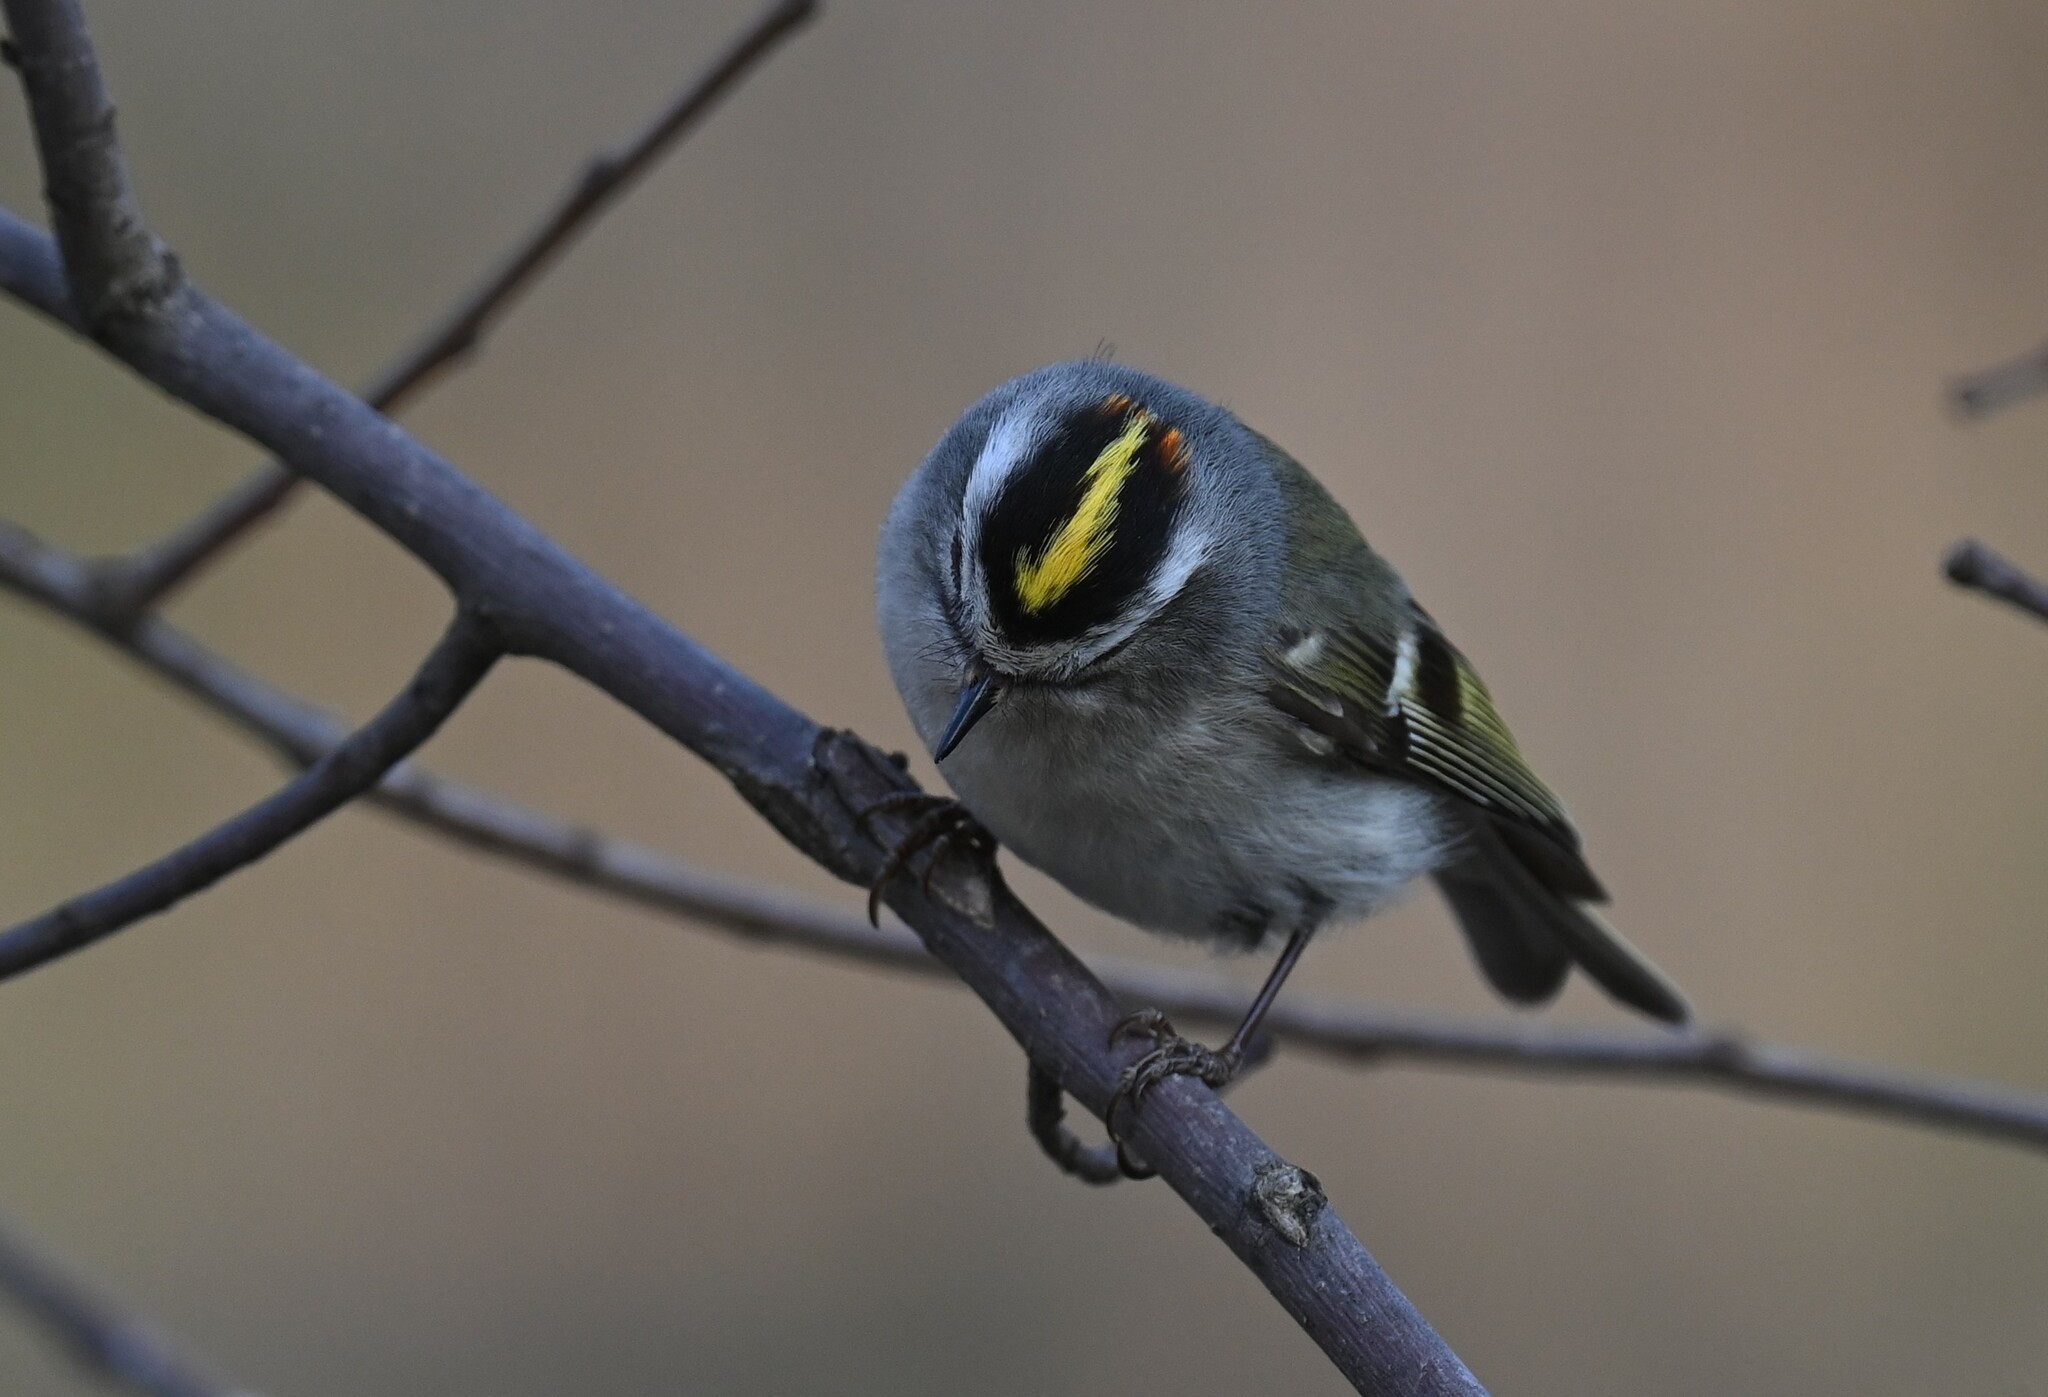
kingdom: Animalia
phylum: Chordata
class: Aves
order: Passeriformes
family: Regulidae
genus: Regulus
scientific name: Regulus satrapa
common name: Golden-crowned kinglet
